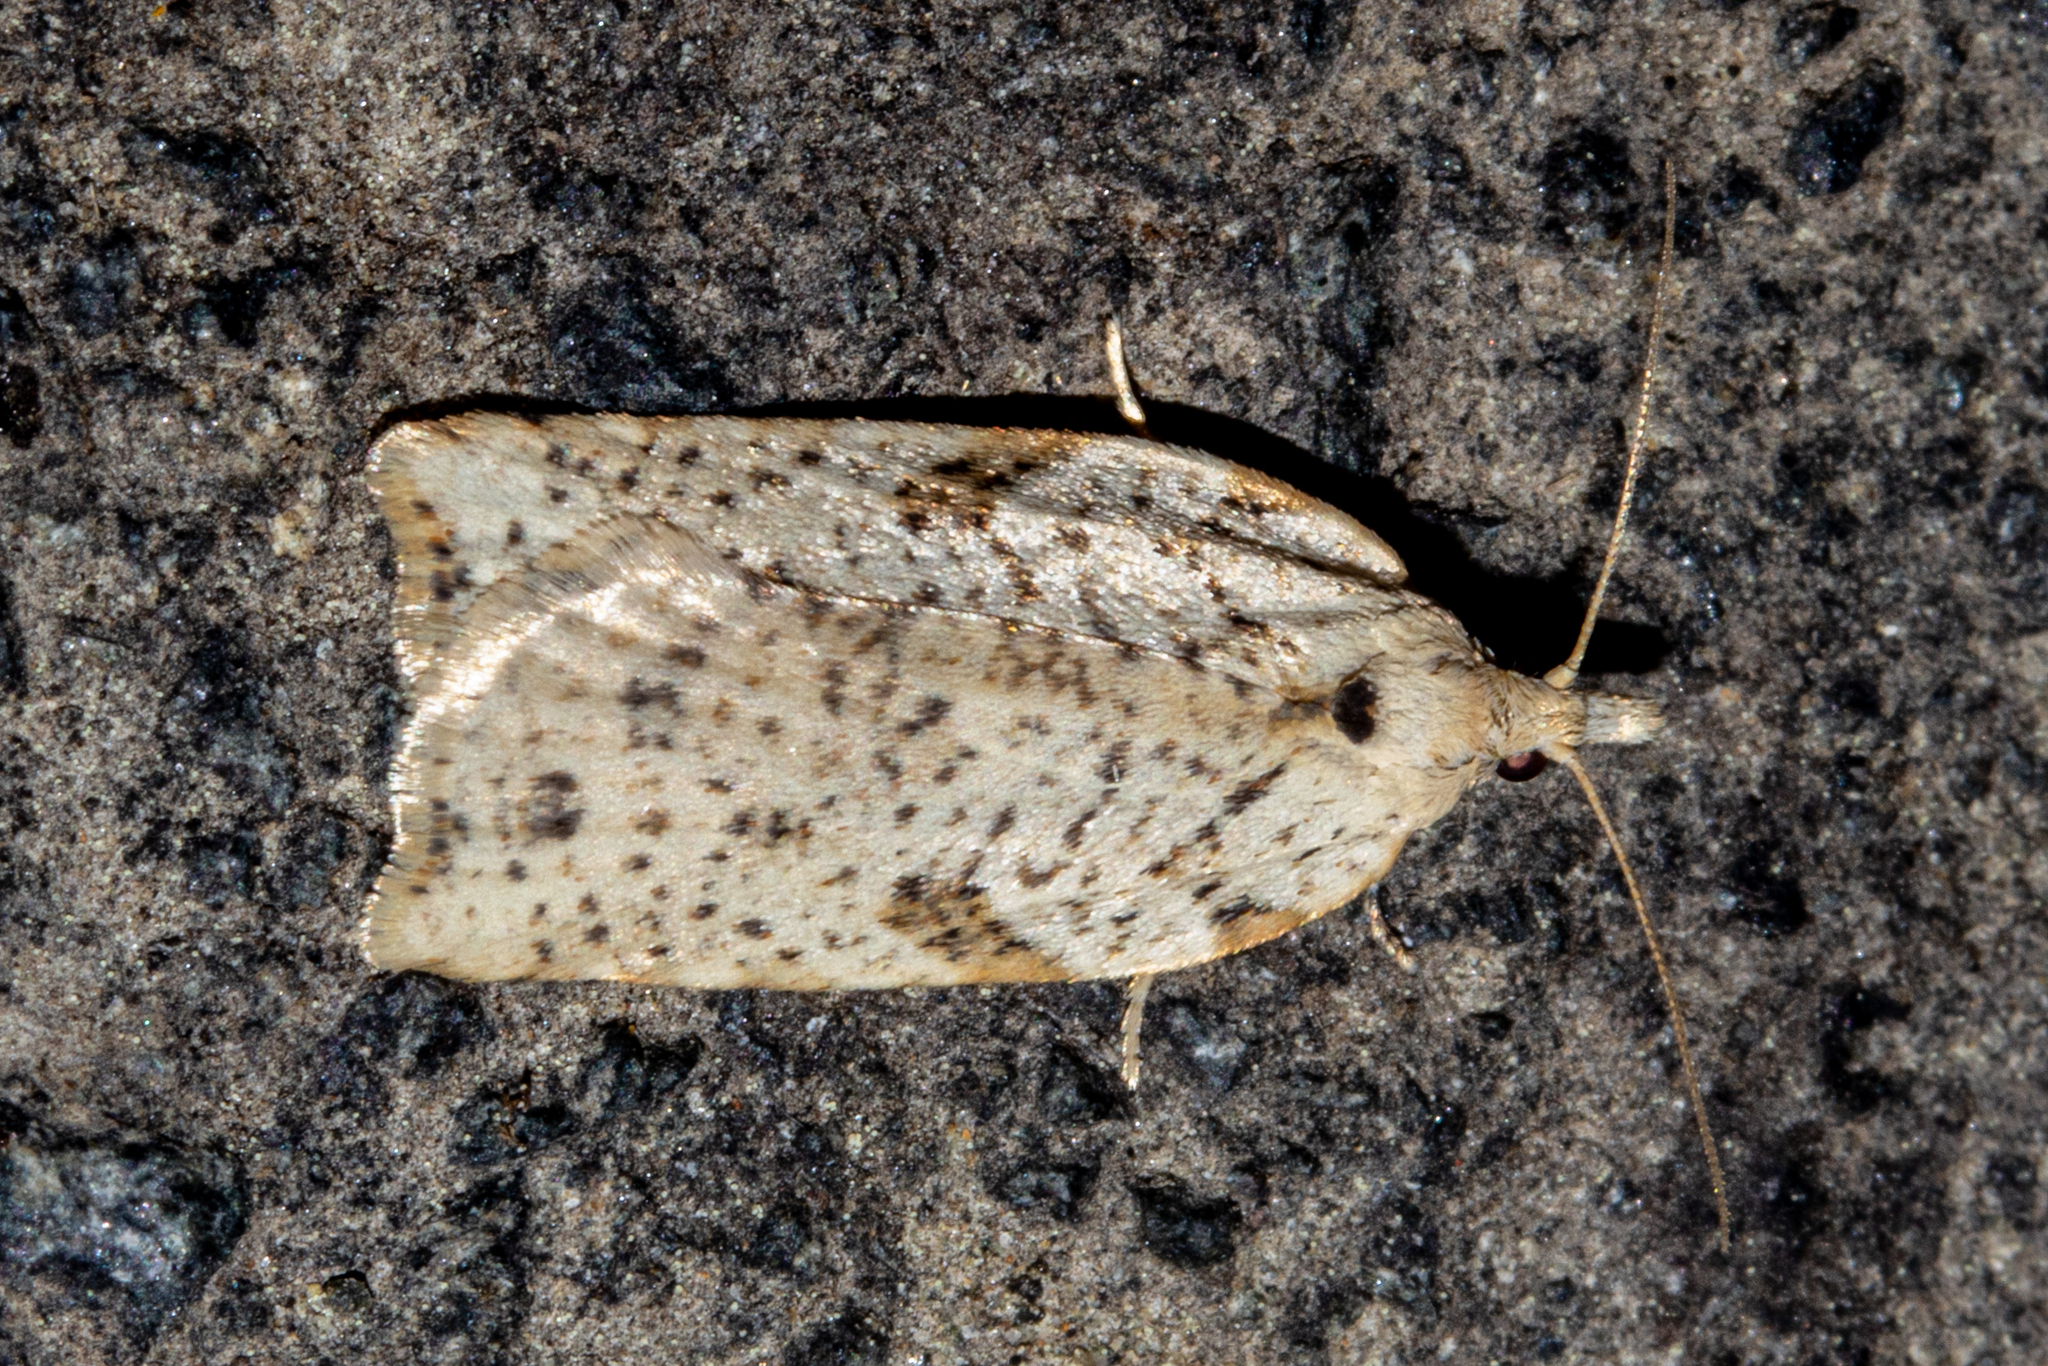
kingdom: Animalia
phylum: Arthropoda
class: Insecta
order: Lepidoptera
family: Tortricidae
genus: Leucotenes
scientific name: Leucotenes coprosmae
